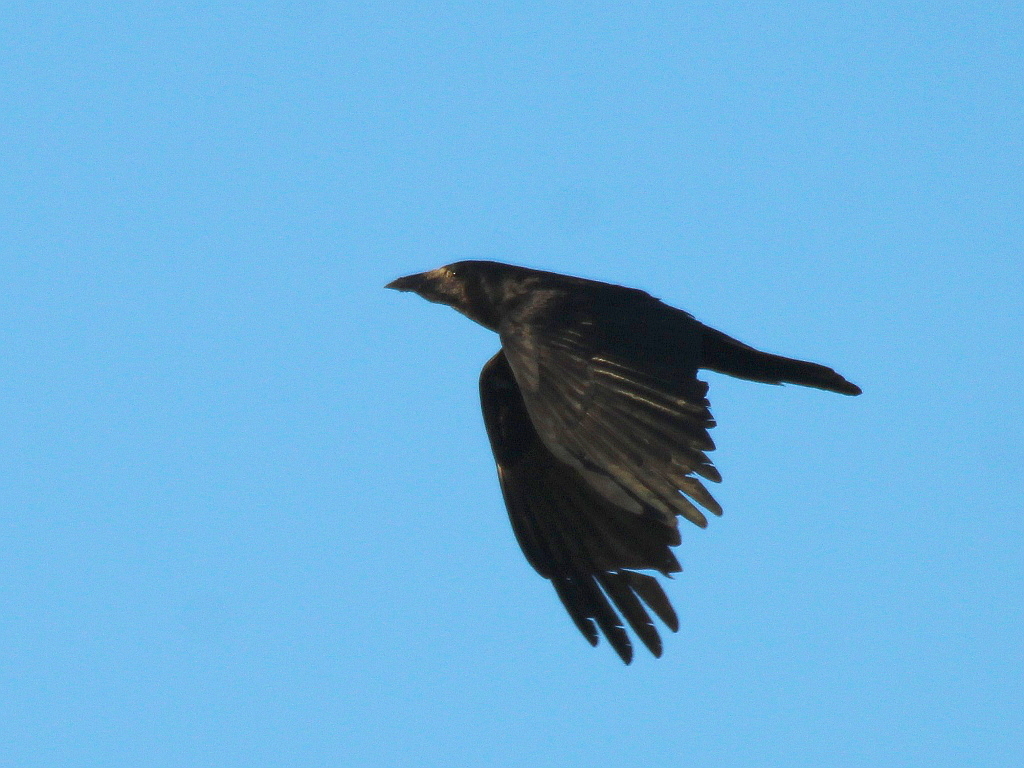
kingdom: Animalia
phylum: Chordata
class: Aves
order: Passeriformes
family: Corvidae
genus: Corvus
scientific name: Corvus frugilegus
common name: Rook
